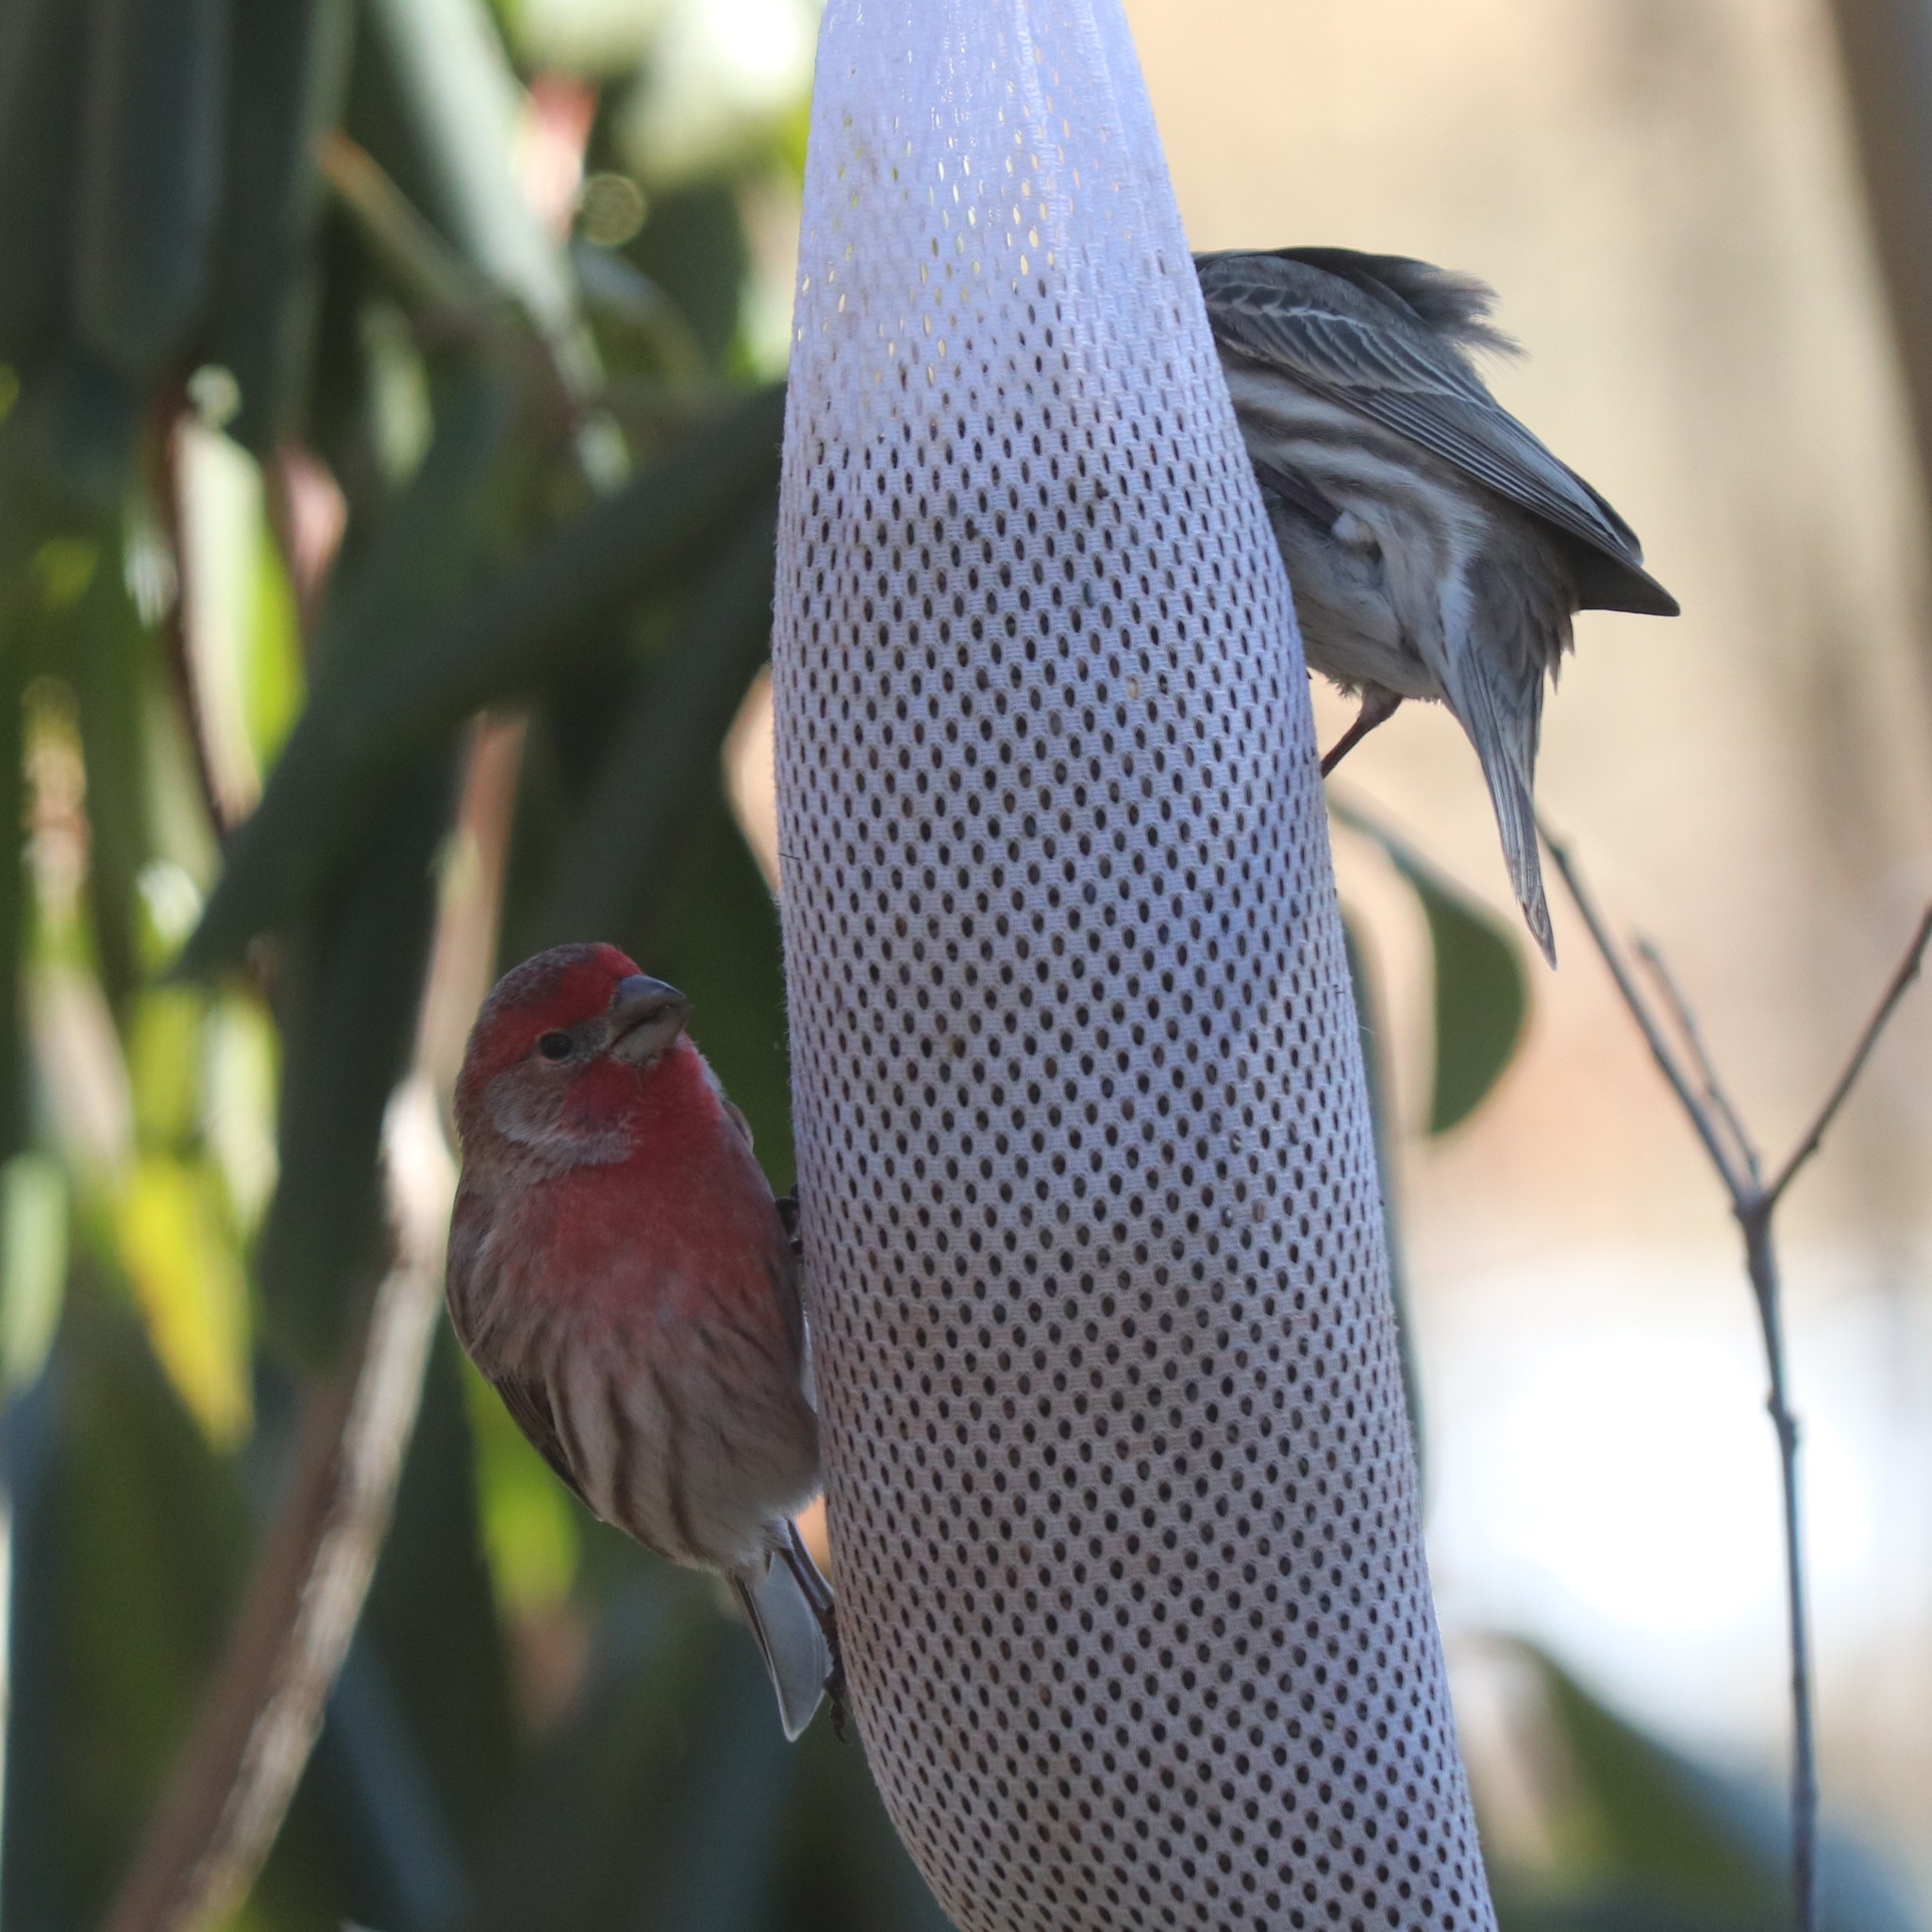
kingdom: Animalia
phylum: Chordata
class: Aves
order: Passeriformes
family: Fringillidae
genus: Haemorhous
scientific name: Haemorhous mexicanus
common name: House finch
